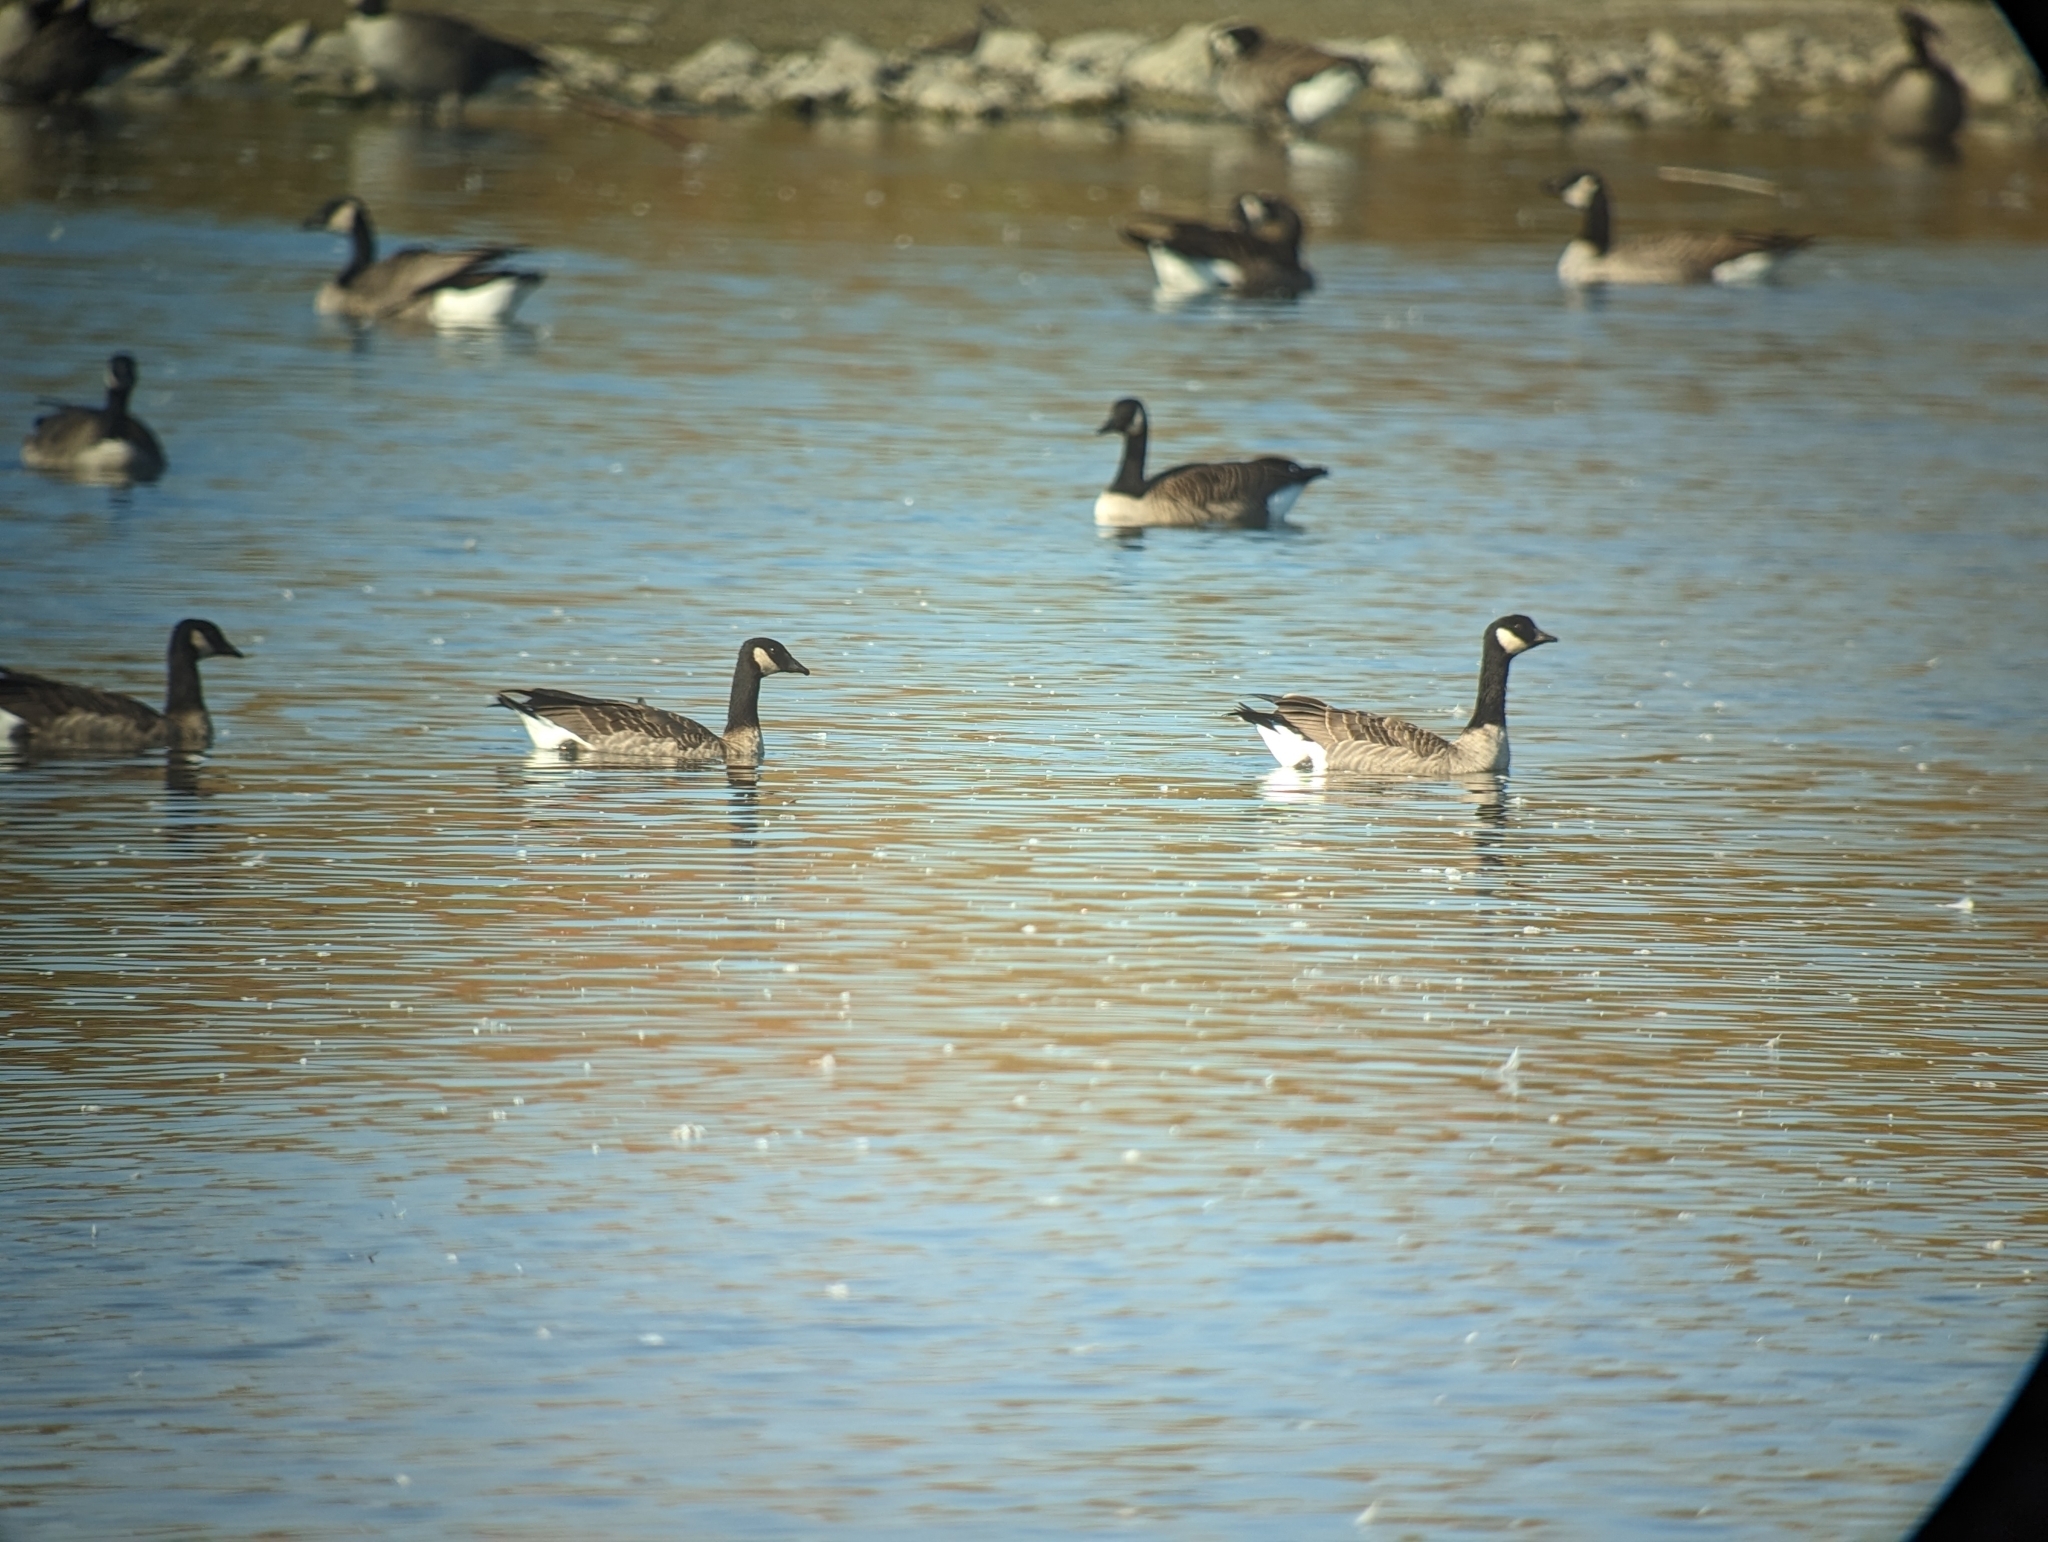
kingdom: Animalia
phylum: Chordata
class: Aves
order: Anseriformes
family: Anatidae
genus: Branta
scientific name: Branta hutchinsii
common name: Cackling goose
